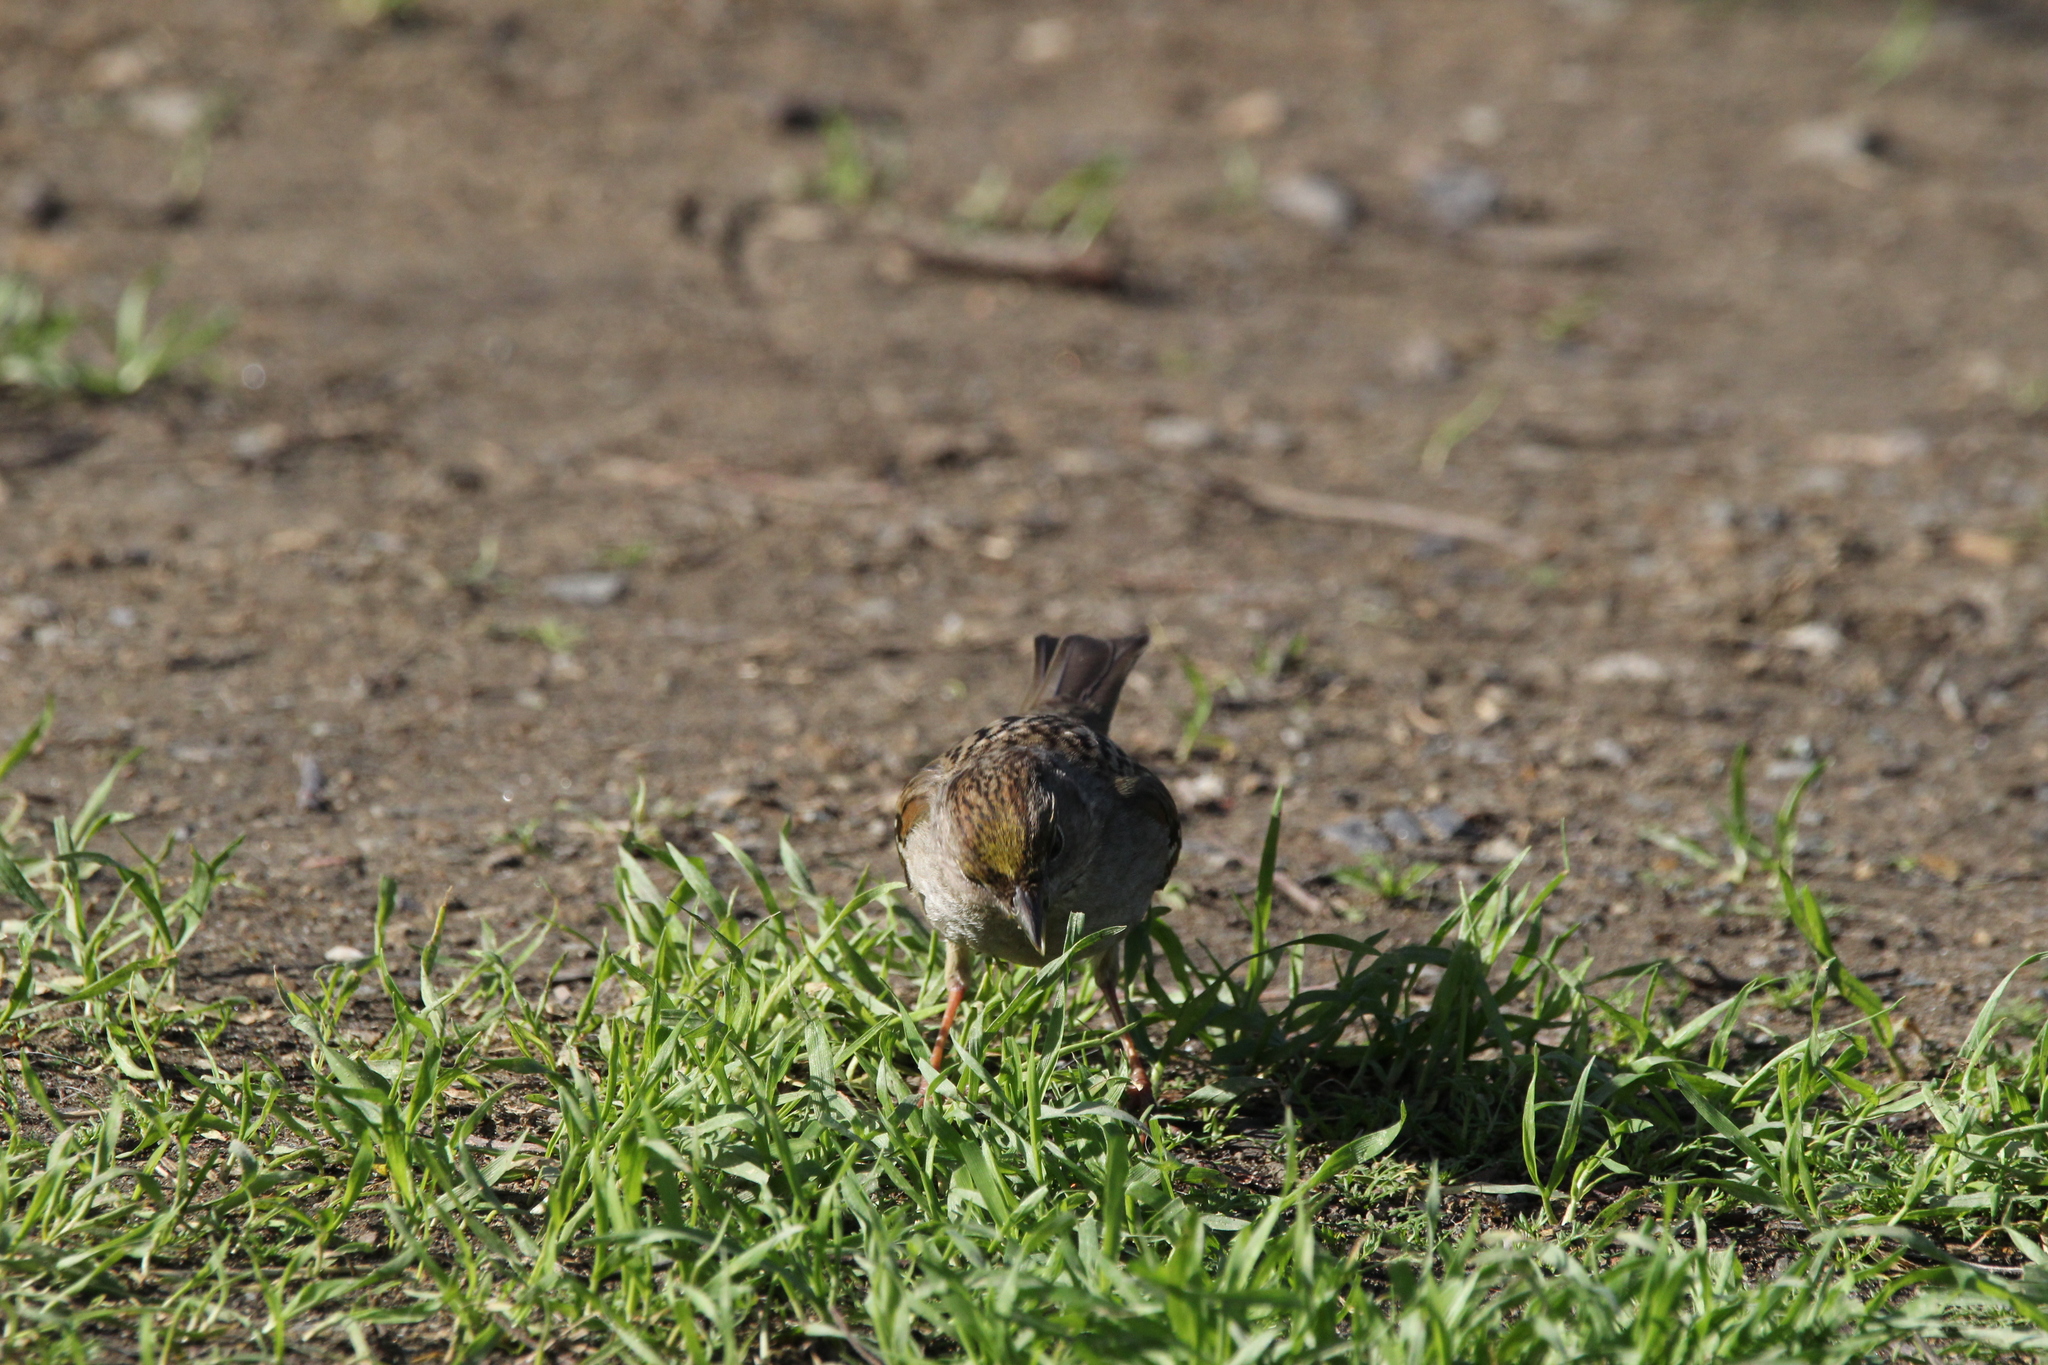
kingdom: Animalia
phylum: Chordata
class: Aves
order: Passeriformes
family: Passerellidae
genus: Zonotrichia
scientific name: Zonotrichia atricapilla
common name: Golden-crowned sparrow
